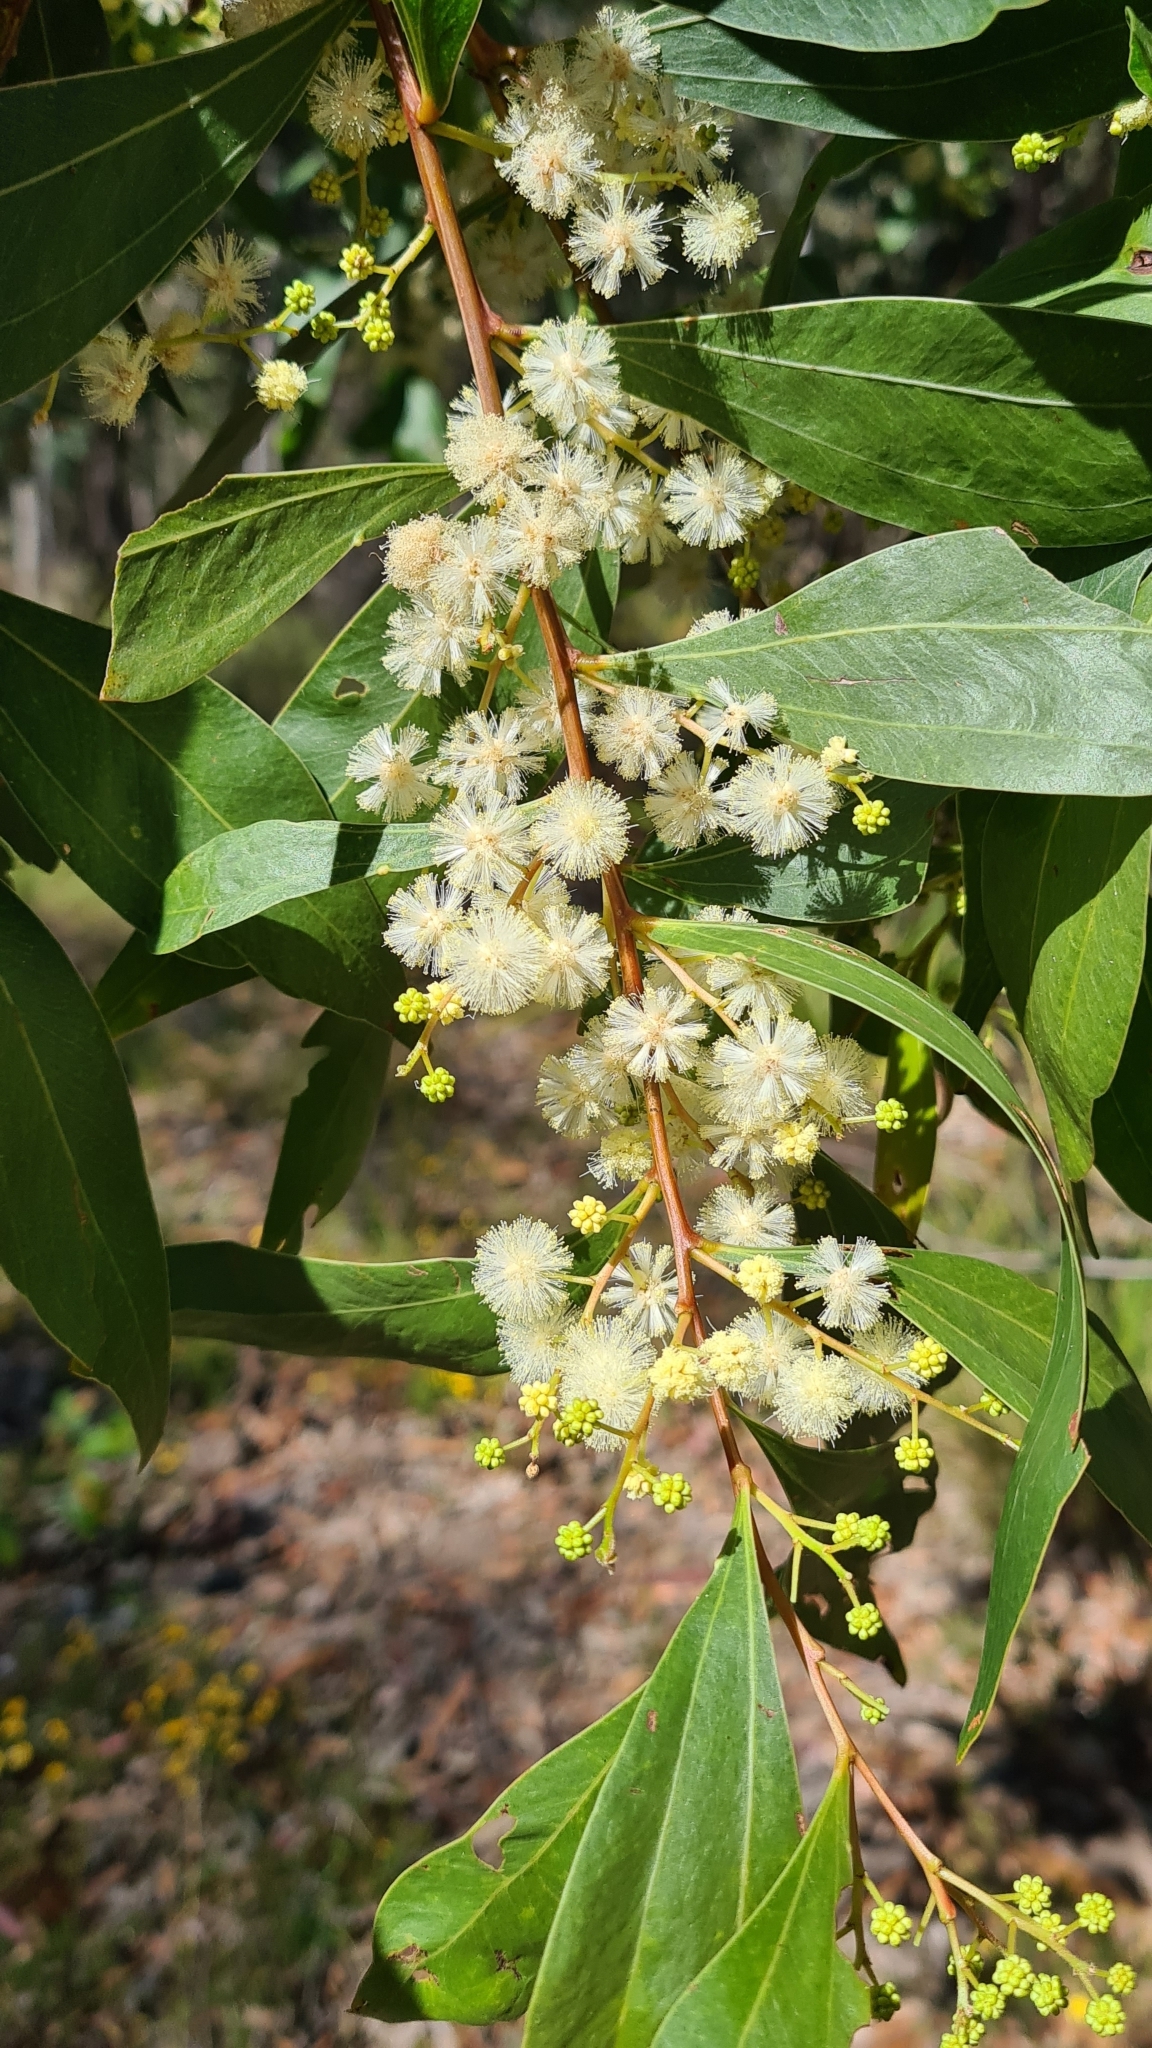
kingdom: Plantae
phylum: Tracheophyta
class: Magnoliopsida
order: Fabales
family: Fabaceae
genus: Acacia
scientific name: Acacia binervata
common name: Two-veined hickory
